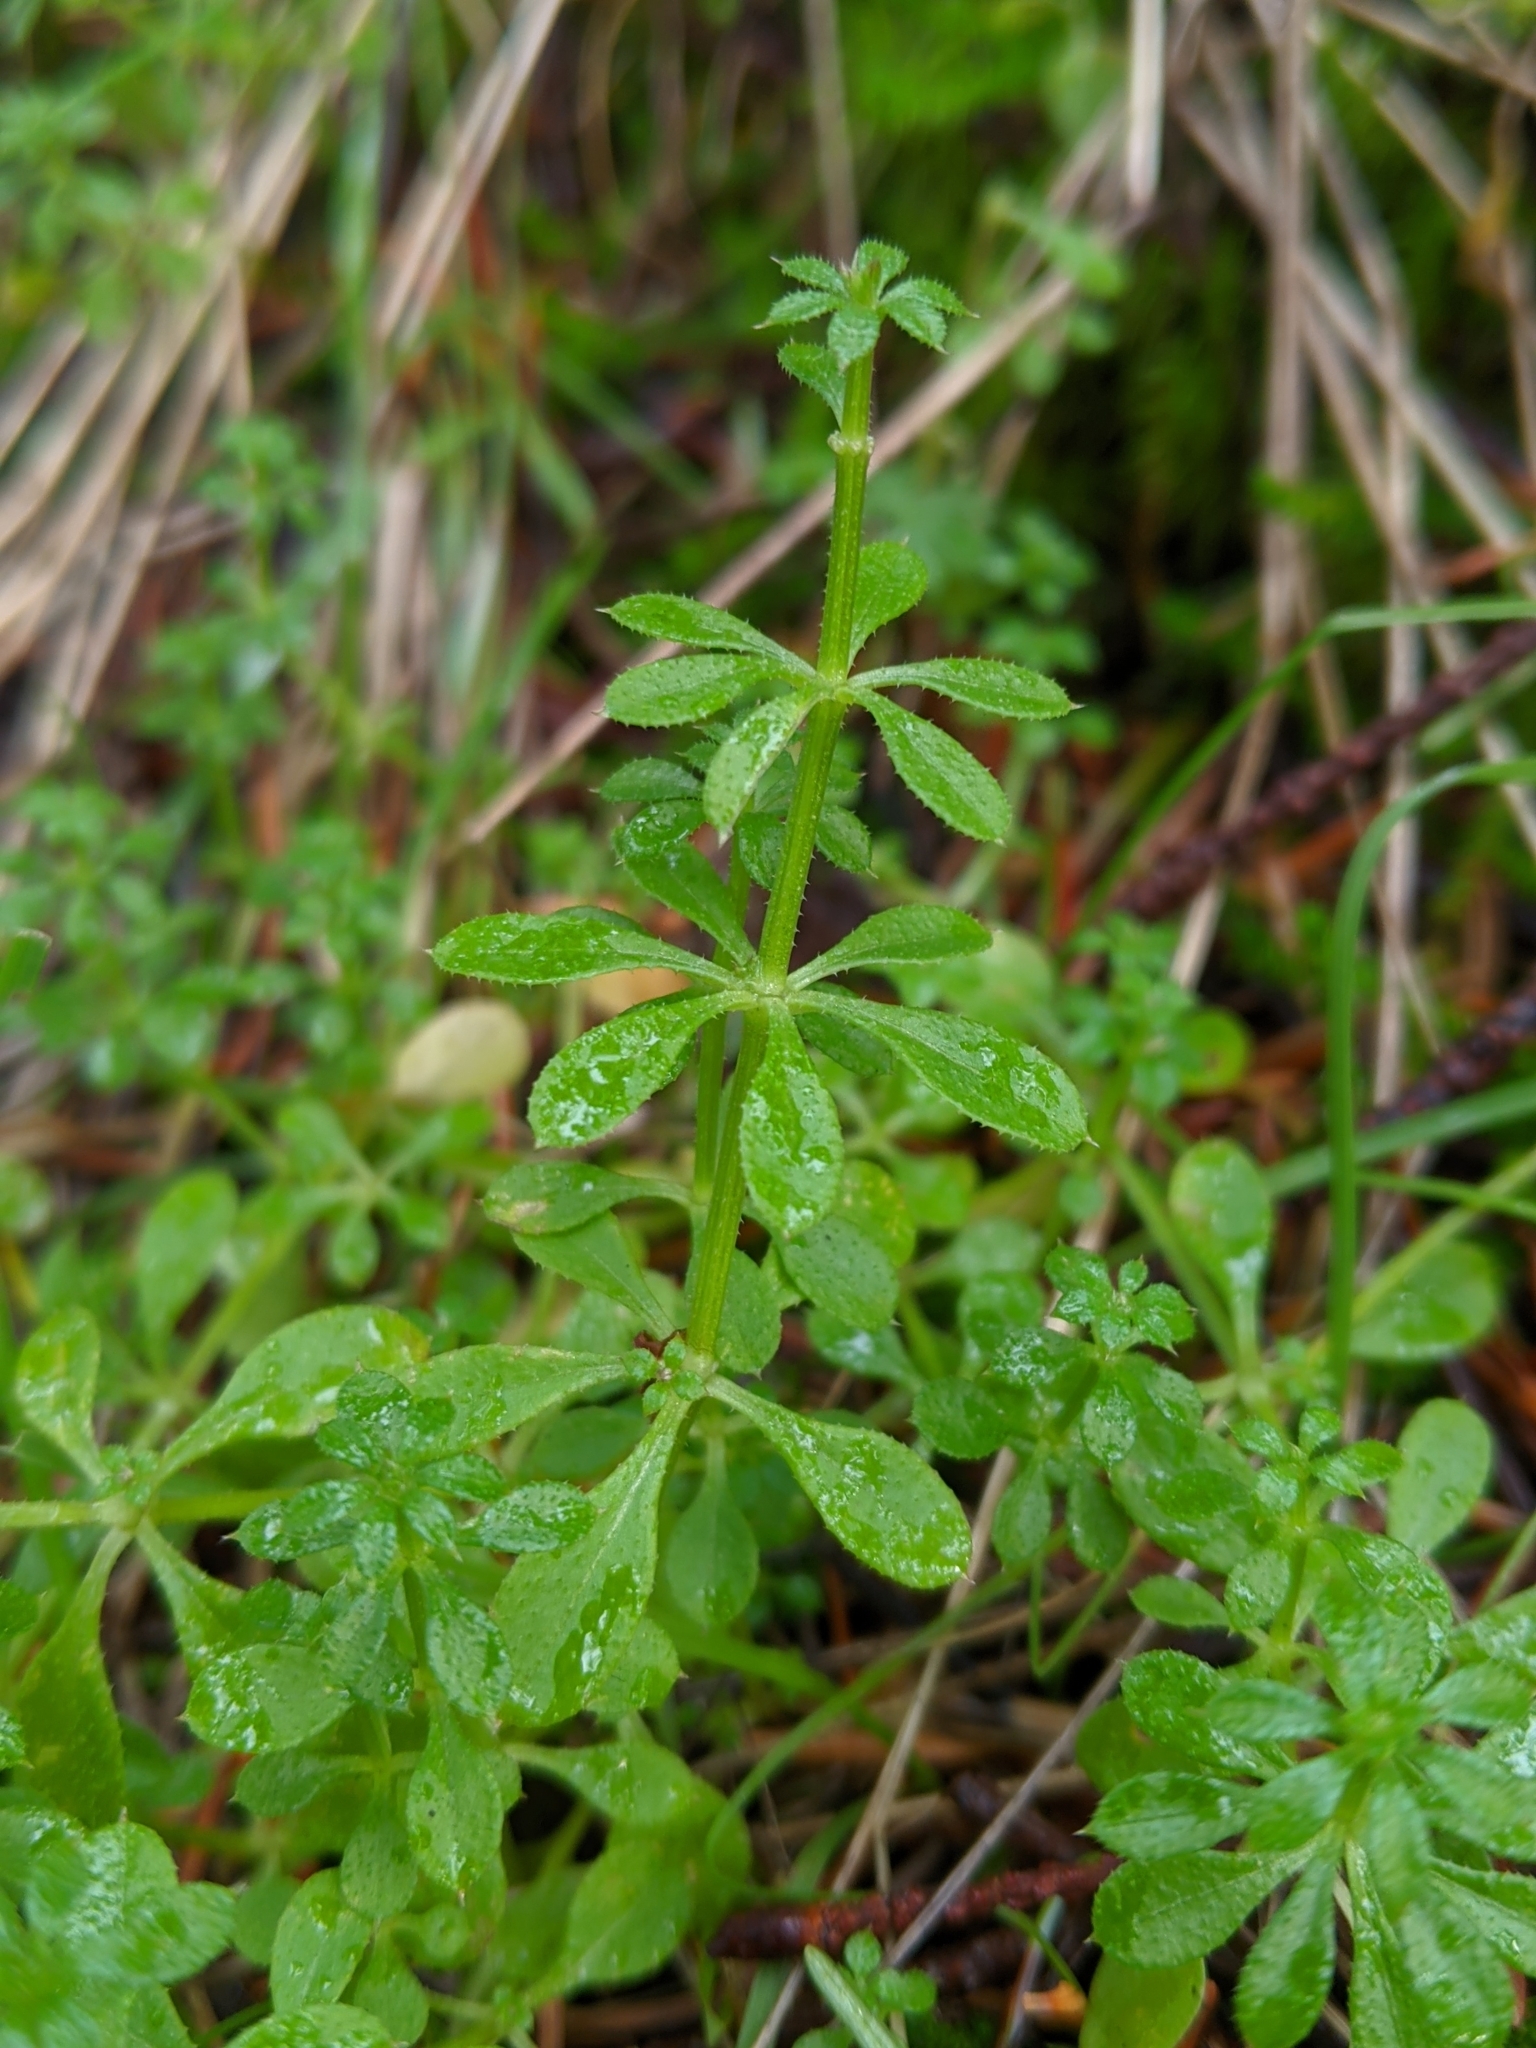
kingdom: Plantae
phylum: Tracheophyta
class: Magnoliopsida
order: Gentianales
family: Rubiaceae
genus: Galium
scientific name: Galium aparine
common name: Cleavers
